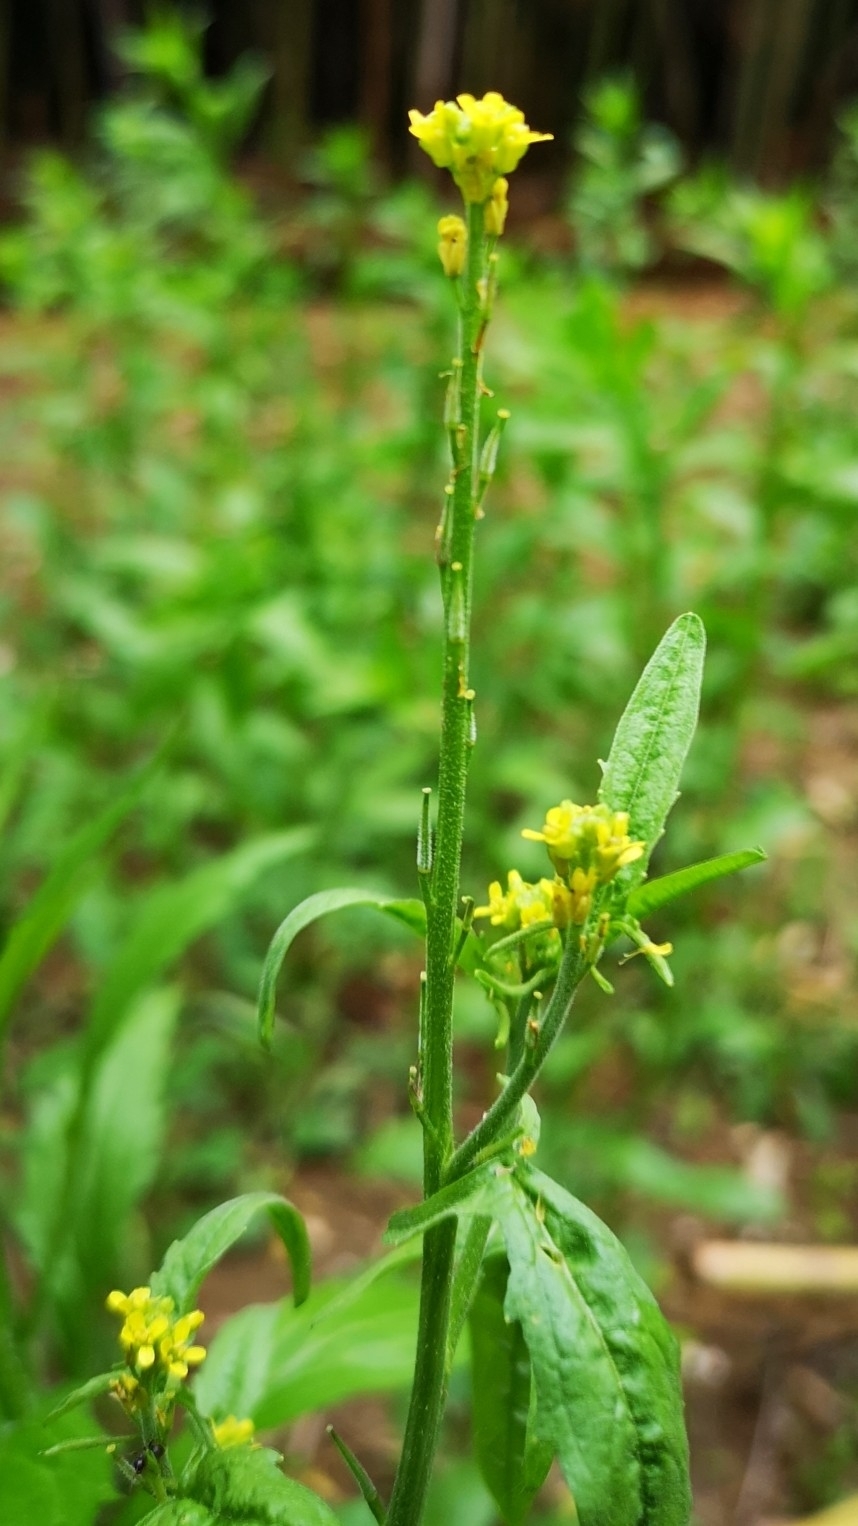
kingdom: Plantae
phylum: Tracheophyta
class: Magnoliopsida
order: Brassicales
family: Brassicaceae
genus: Sisymbrium
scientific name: Sisymbrium officinale
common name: Hedge mustard
